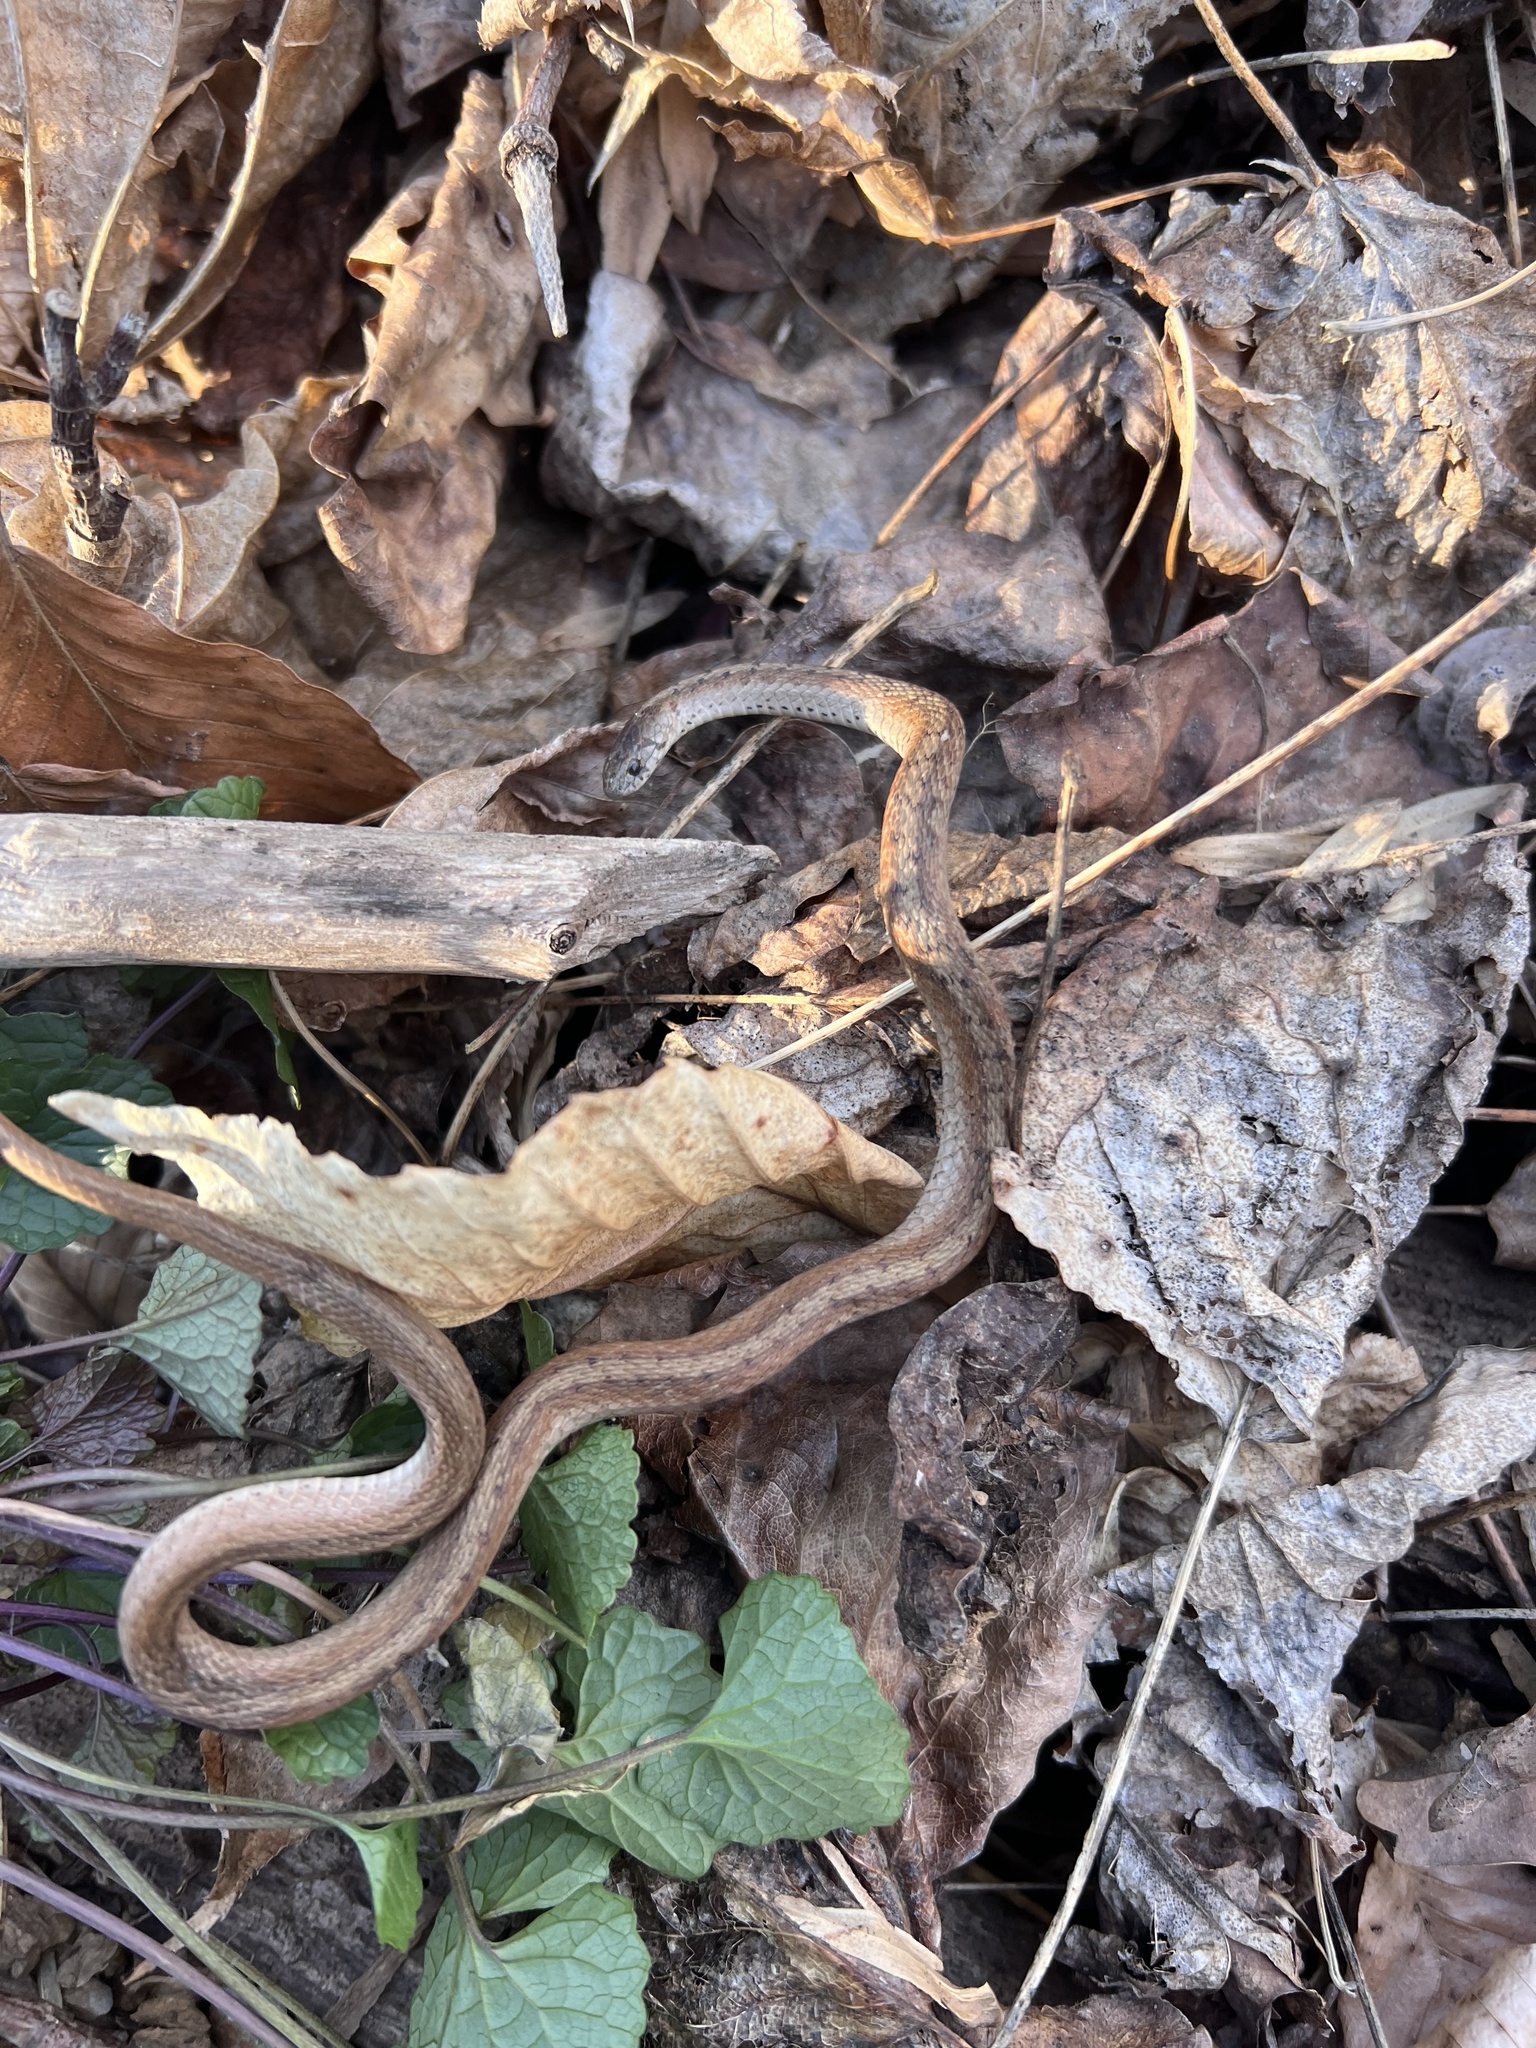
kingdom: Animalia
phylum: Chordata
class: Squamata
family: Colubridae
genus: Storeria
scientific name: Storeria dekayi
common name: (dekay’s) brown snake
